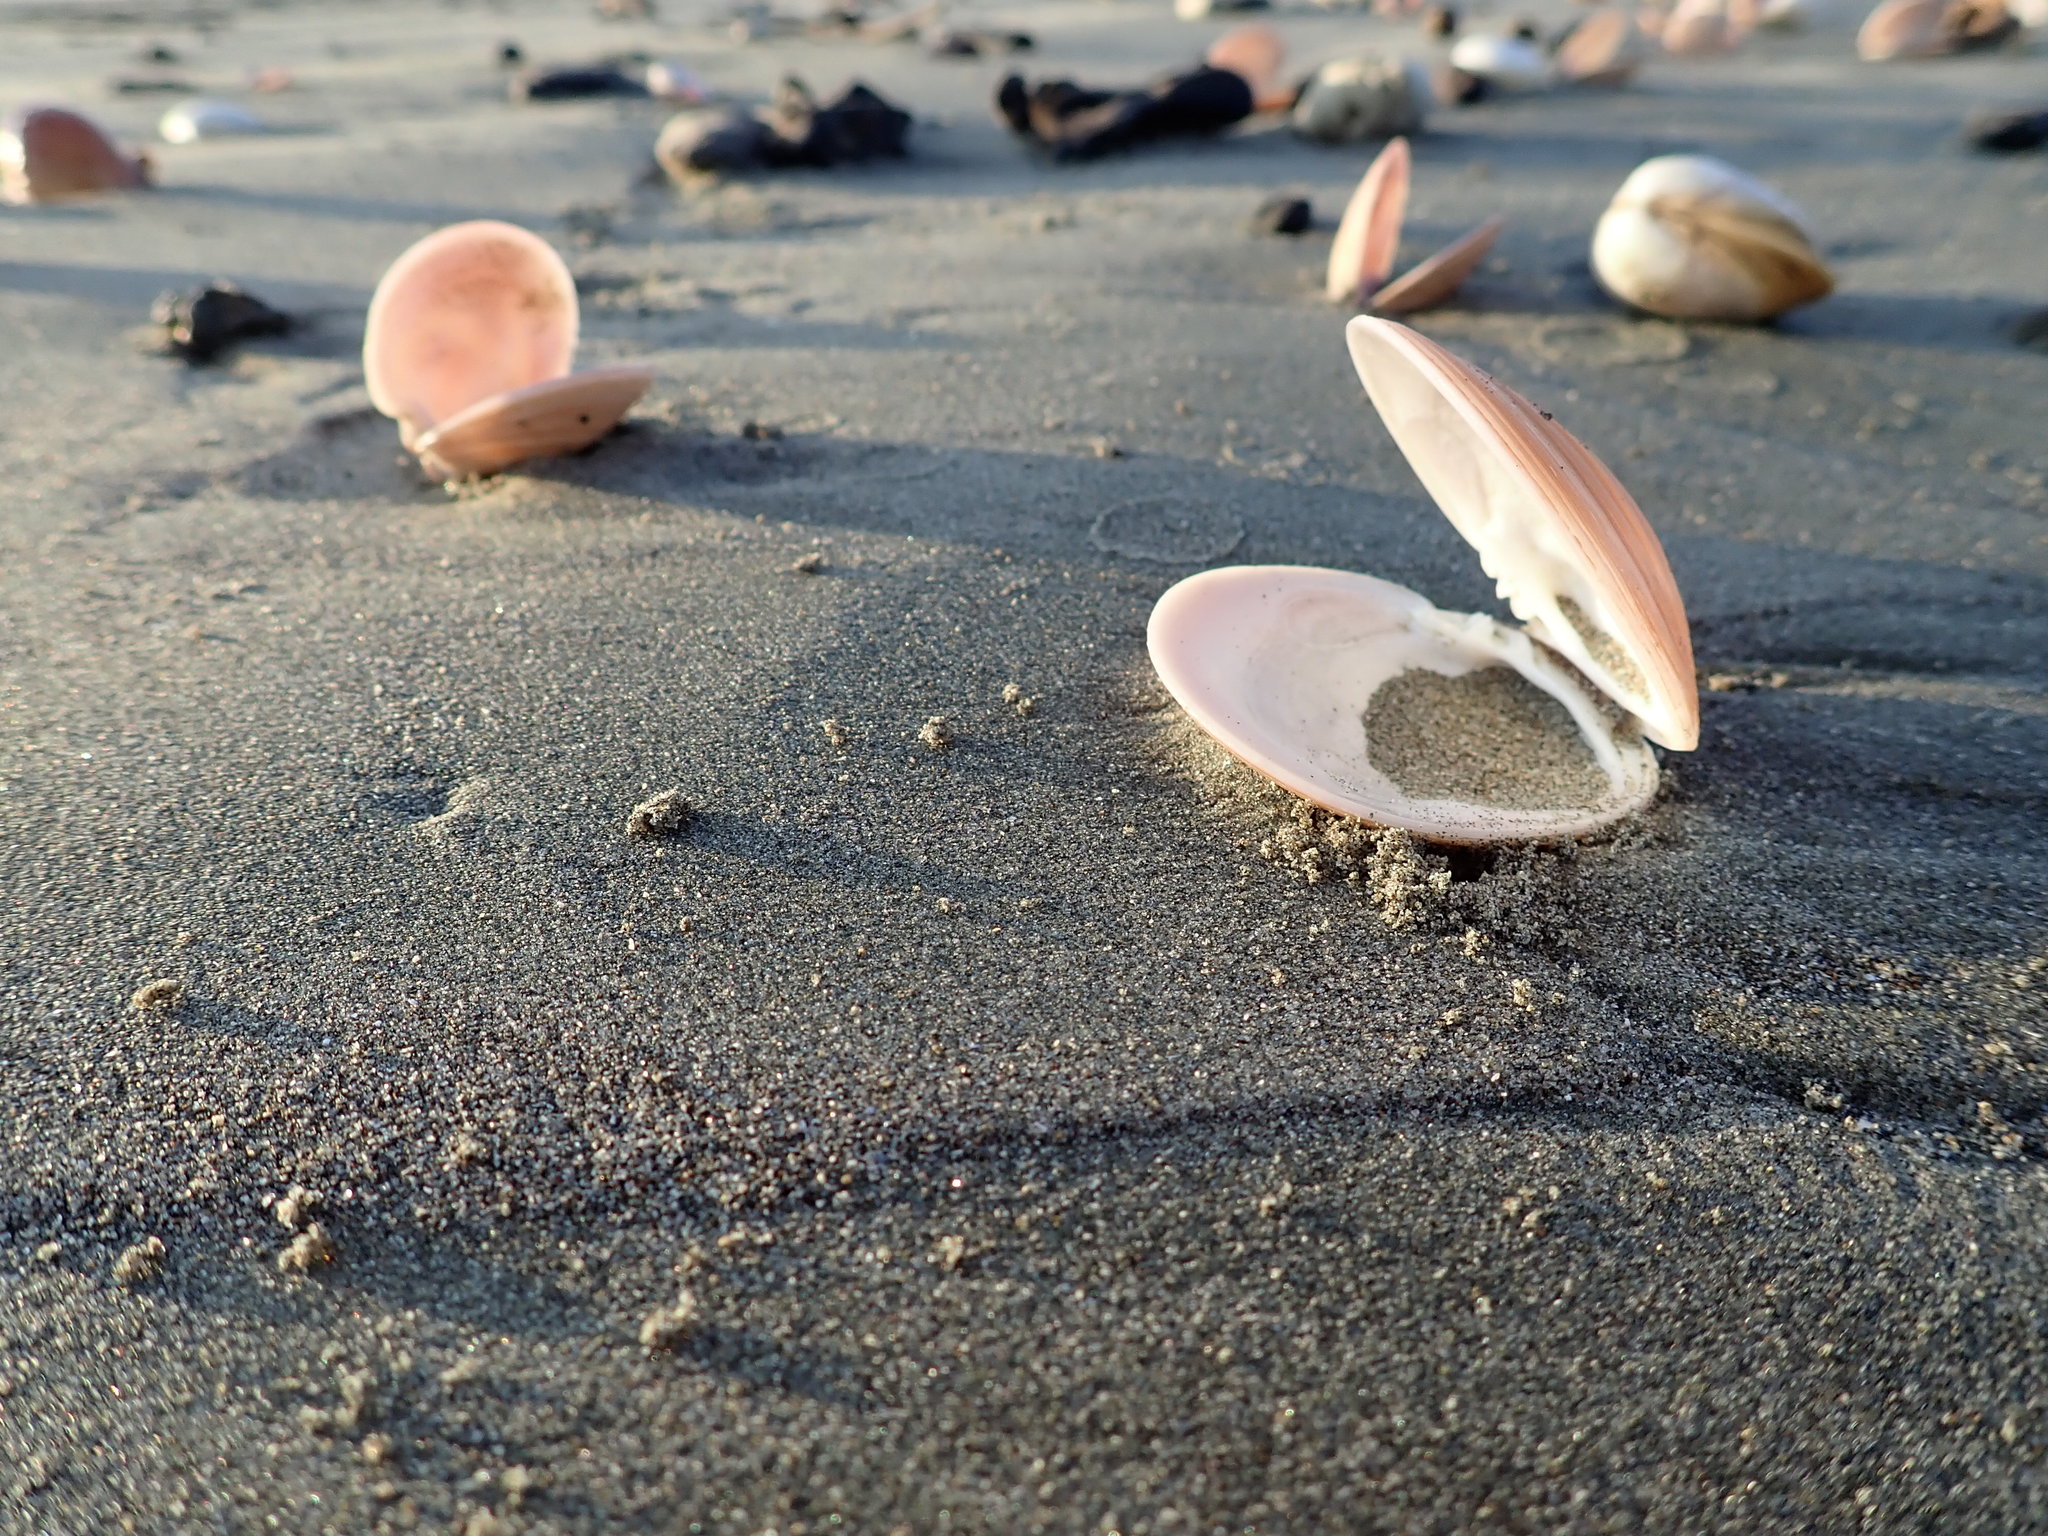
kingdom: Animalia
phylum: Mollusca
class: Bivalvia
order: Venerida
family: Veneridae
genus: Dosinia
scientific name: Dosinia anus
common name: Old-woman dosinia
